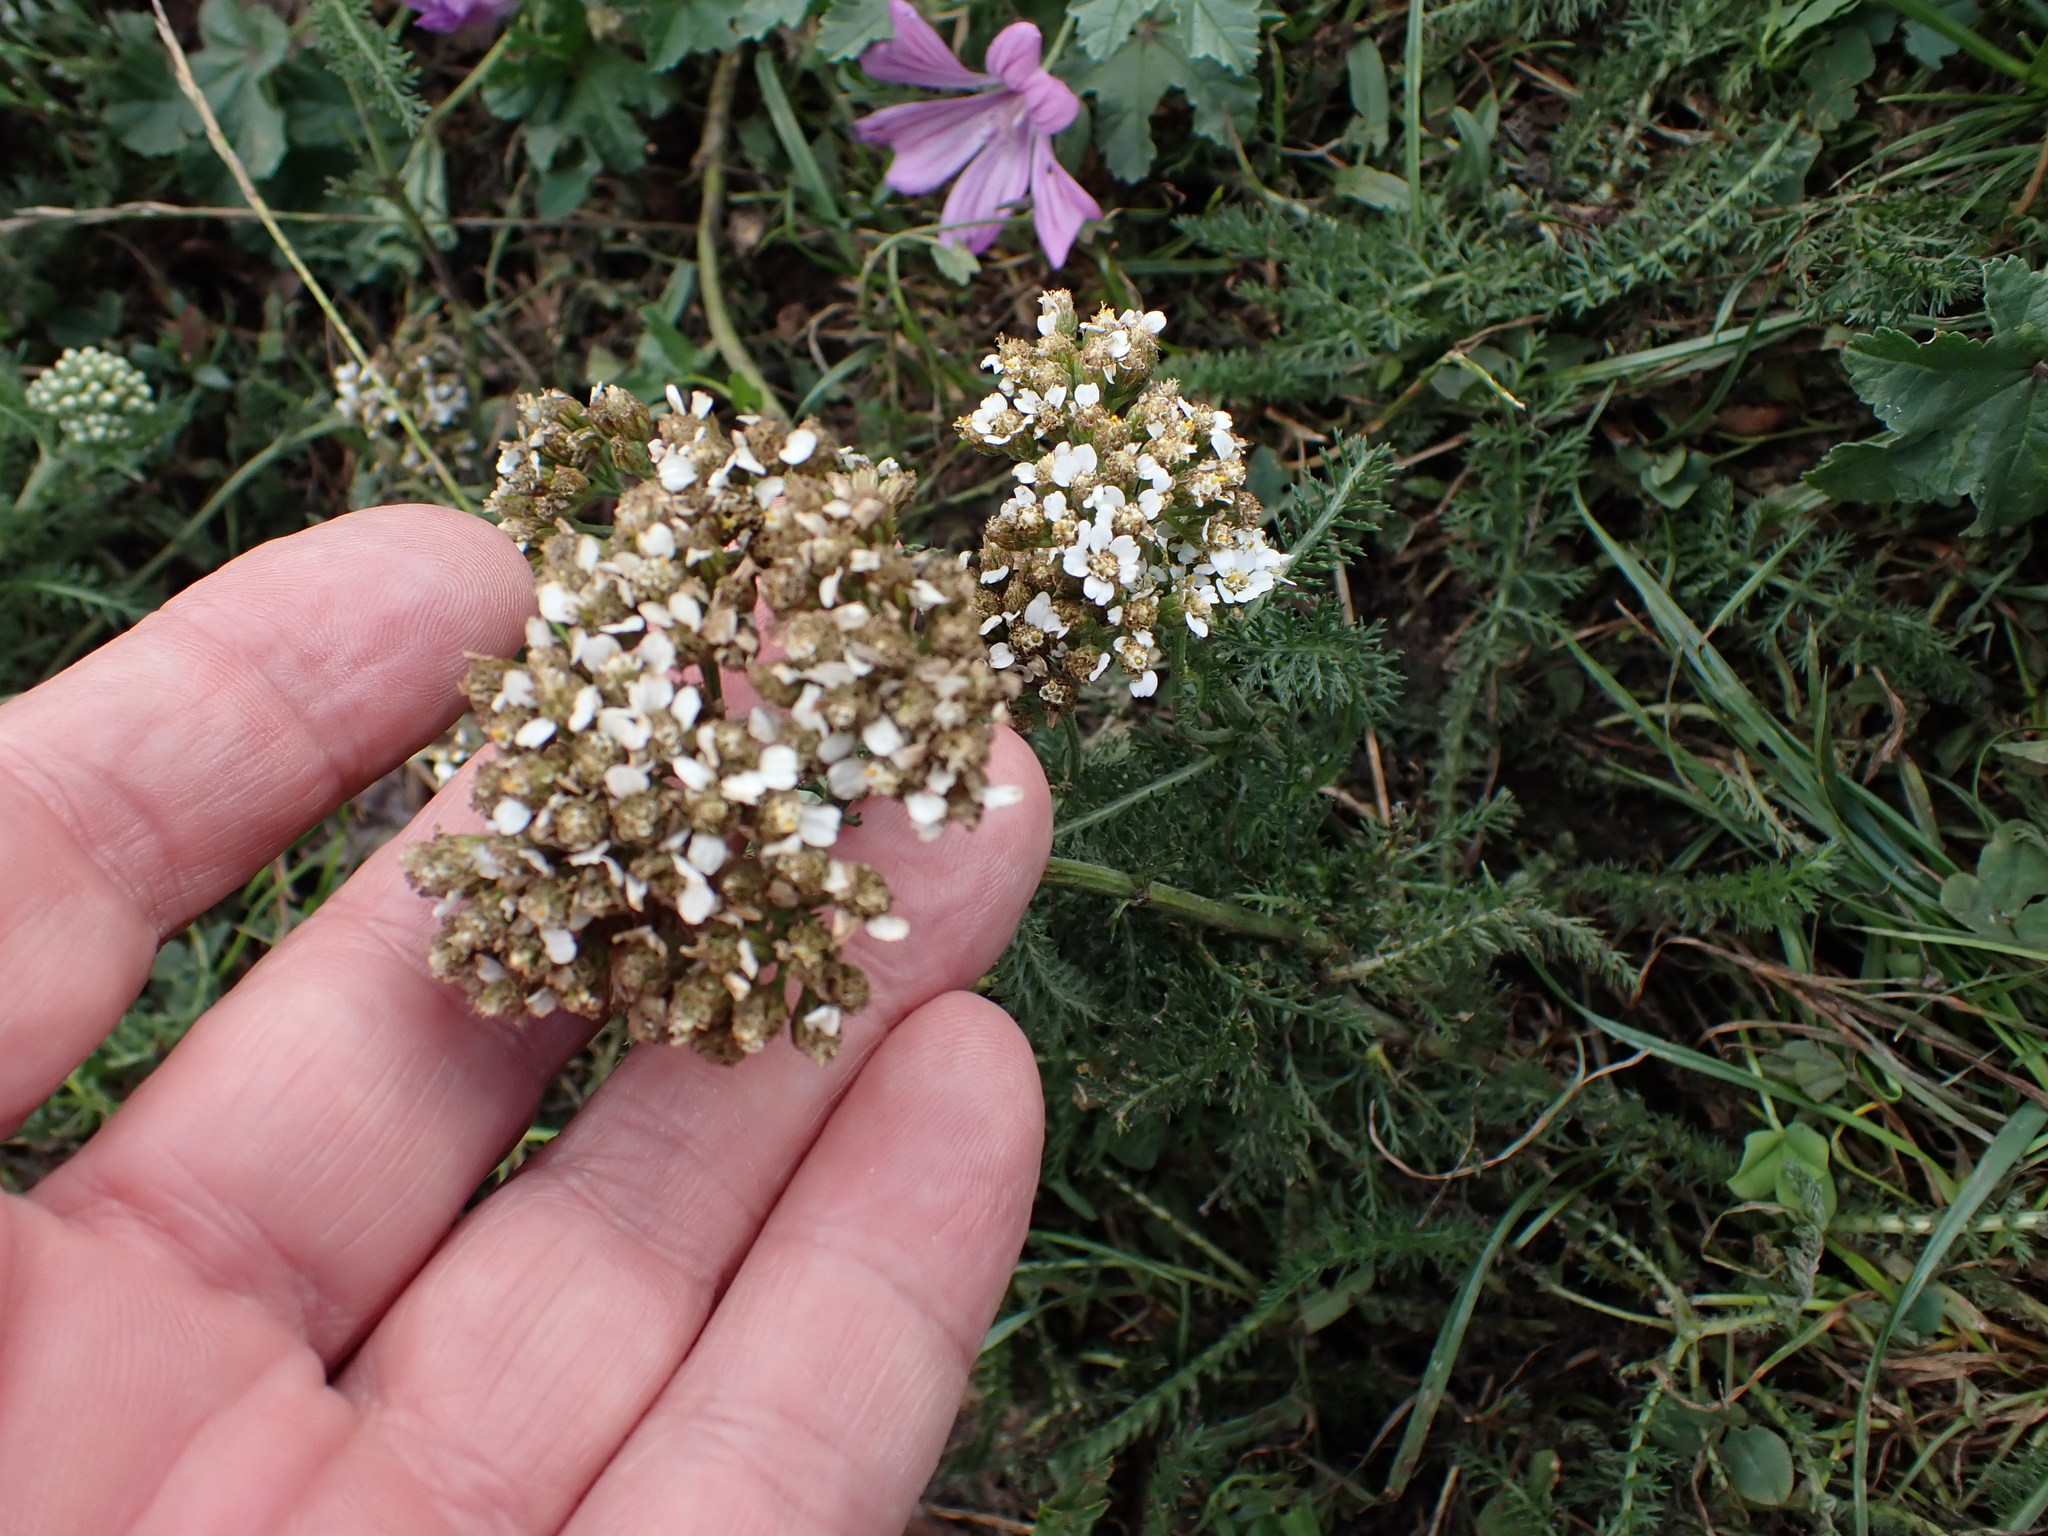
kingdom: Plantae
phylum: Tracheophyta
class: Magnoliopsida
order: Asterales
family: Asteraceae
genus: Achillea
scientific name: Achillea millefolium
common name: Yarrow
